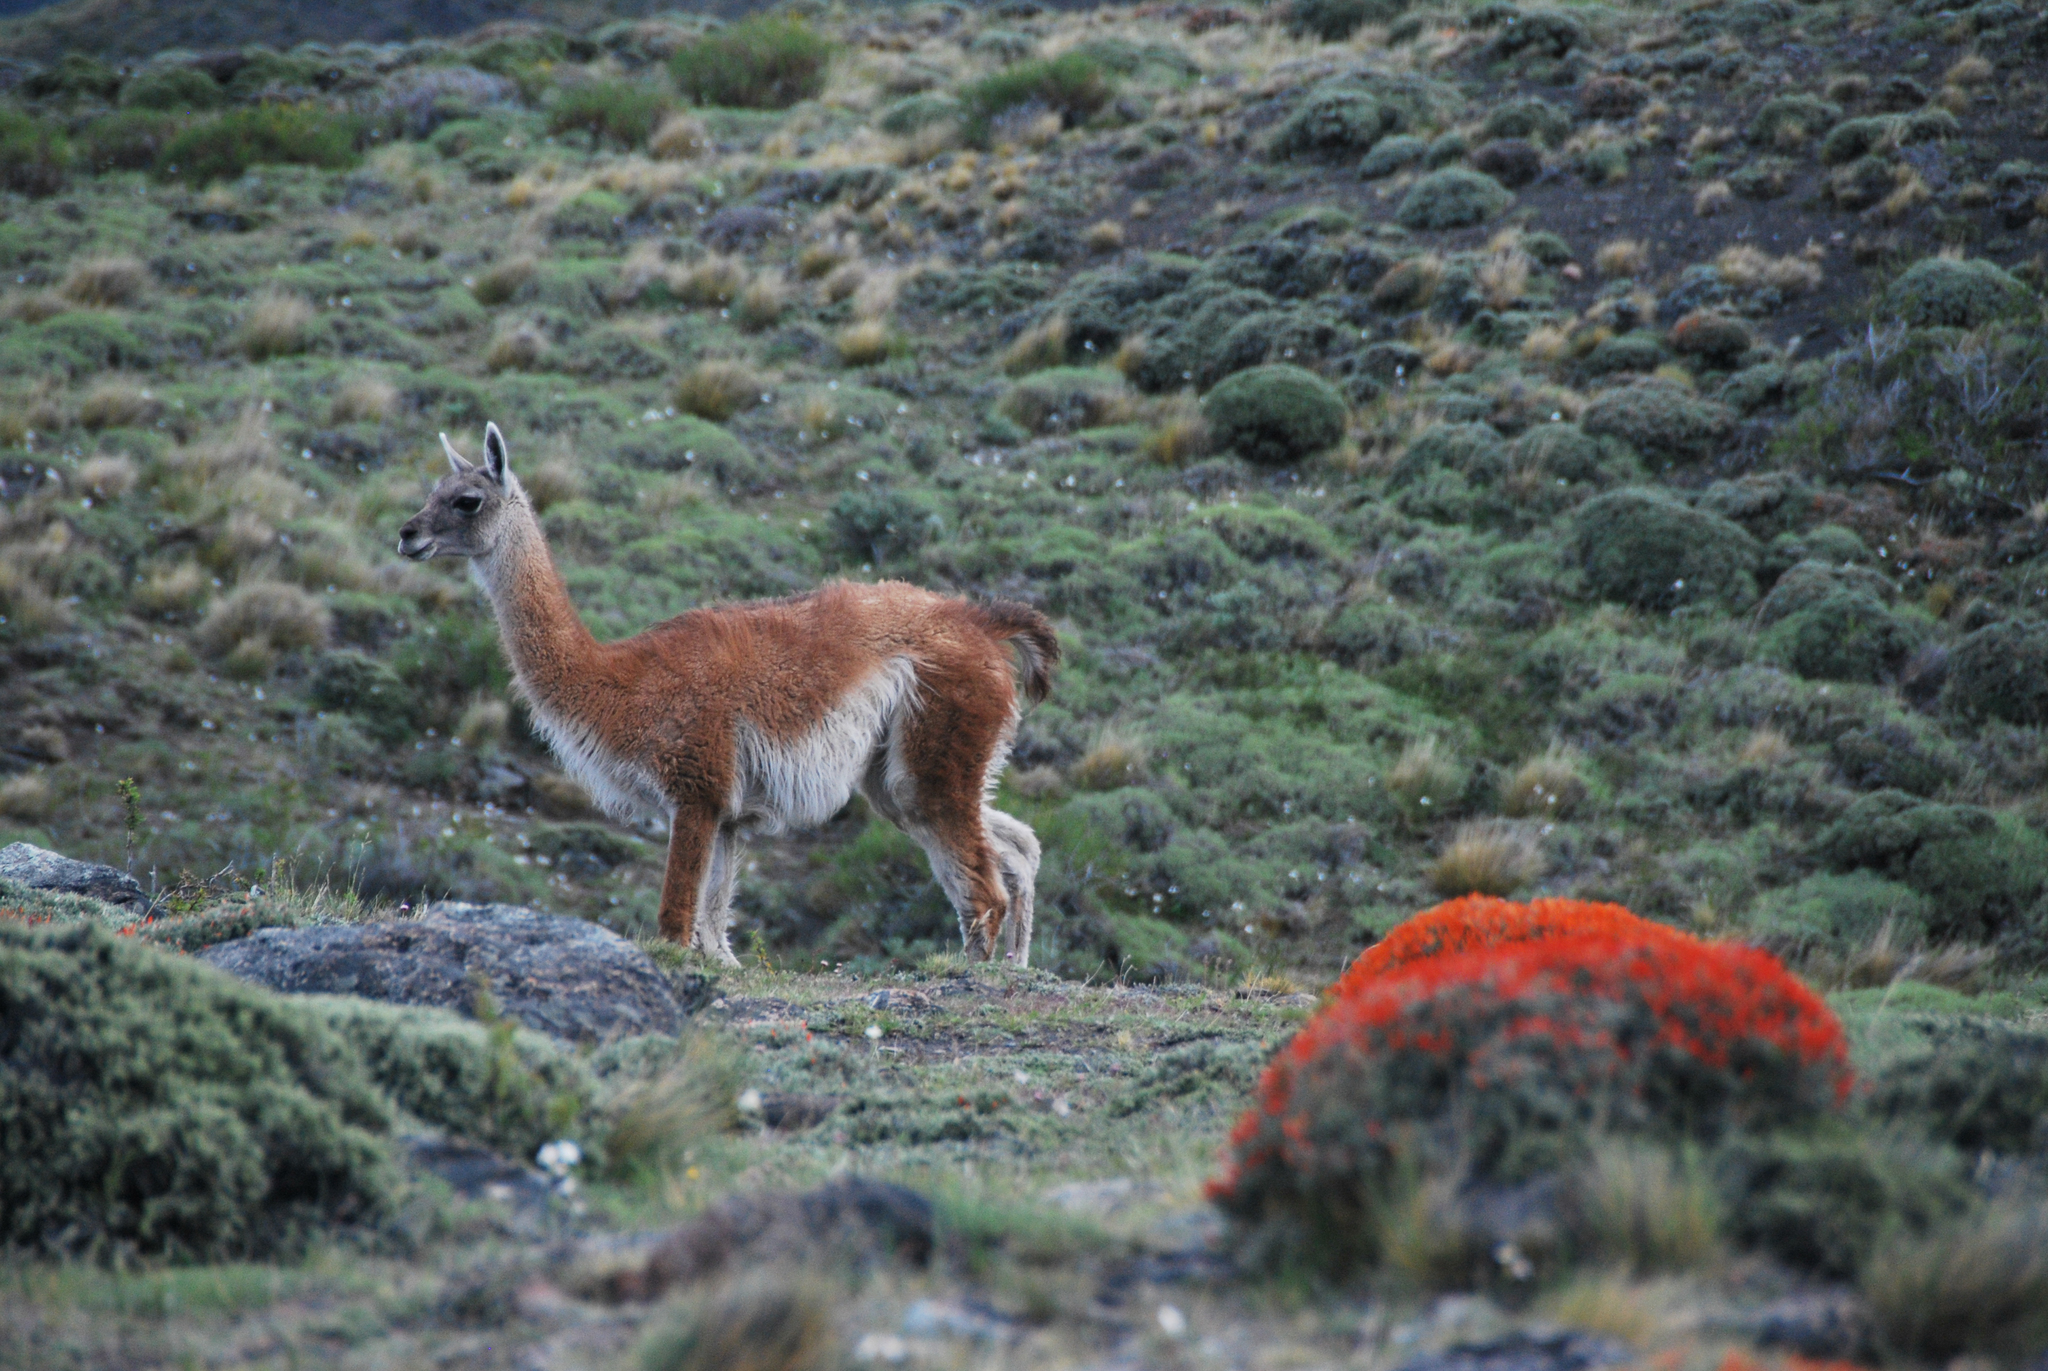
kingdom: Animalia
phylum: Chordata
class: Mammalia
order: Artiodactyla
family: Camelidae
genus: Lama
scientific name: Lama glama
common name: Llama
